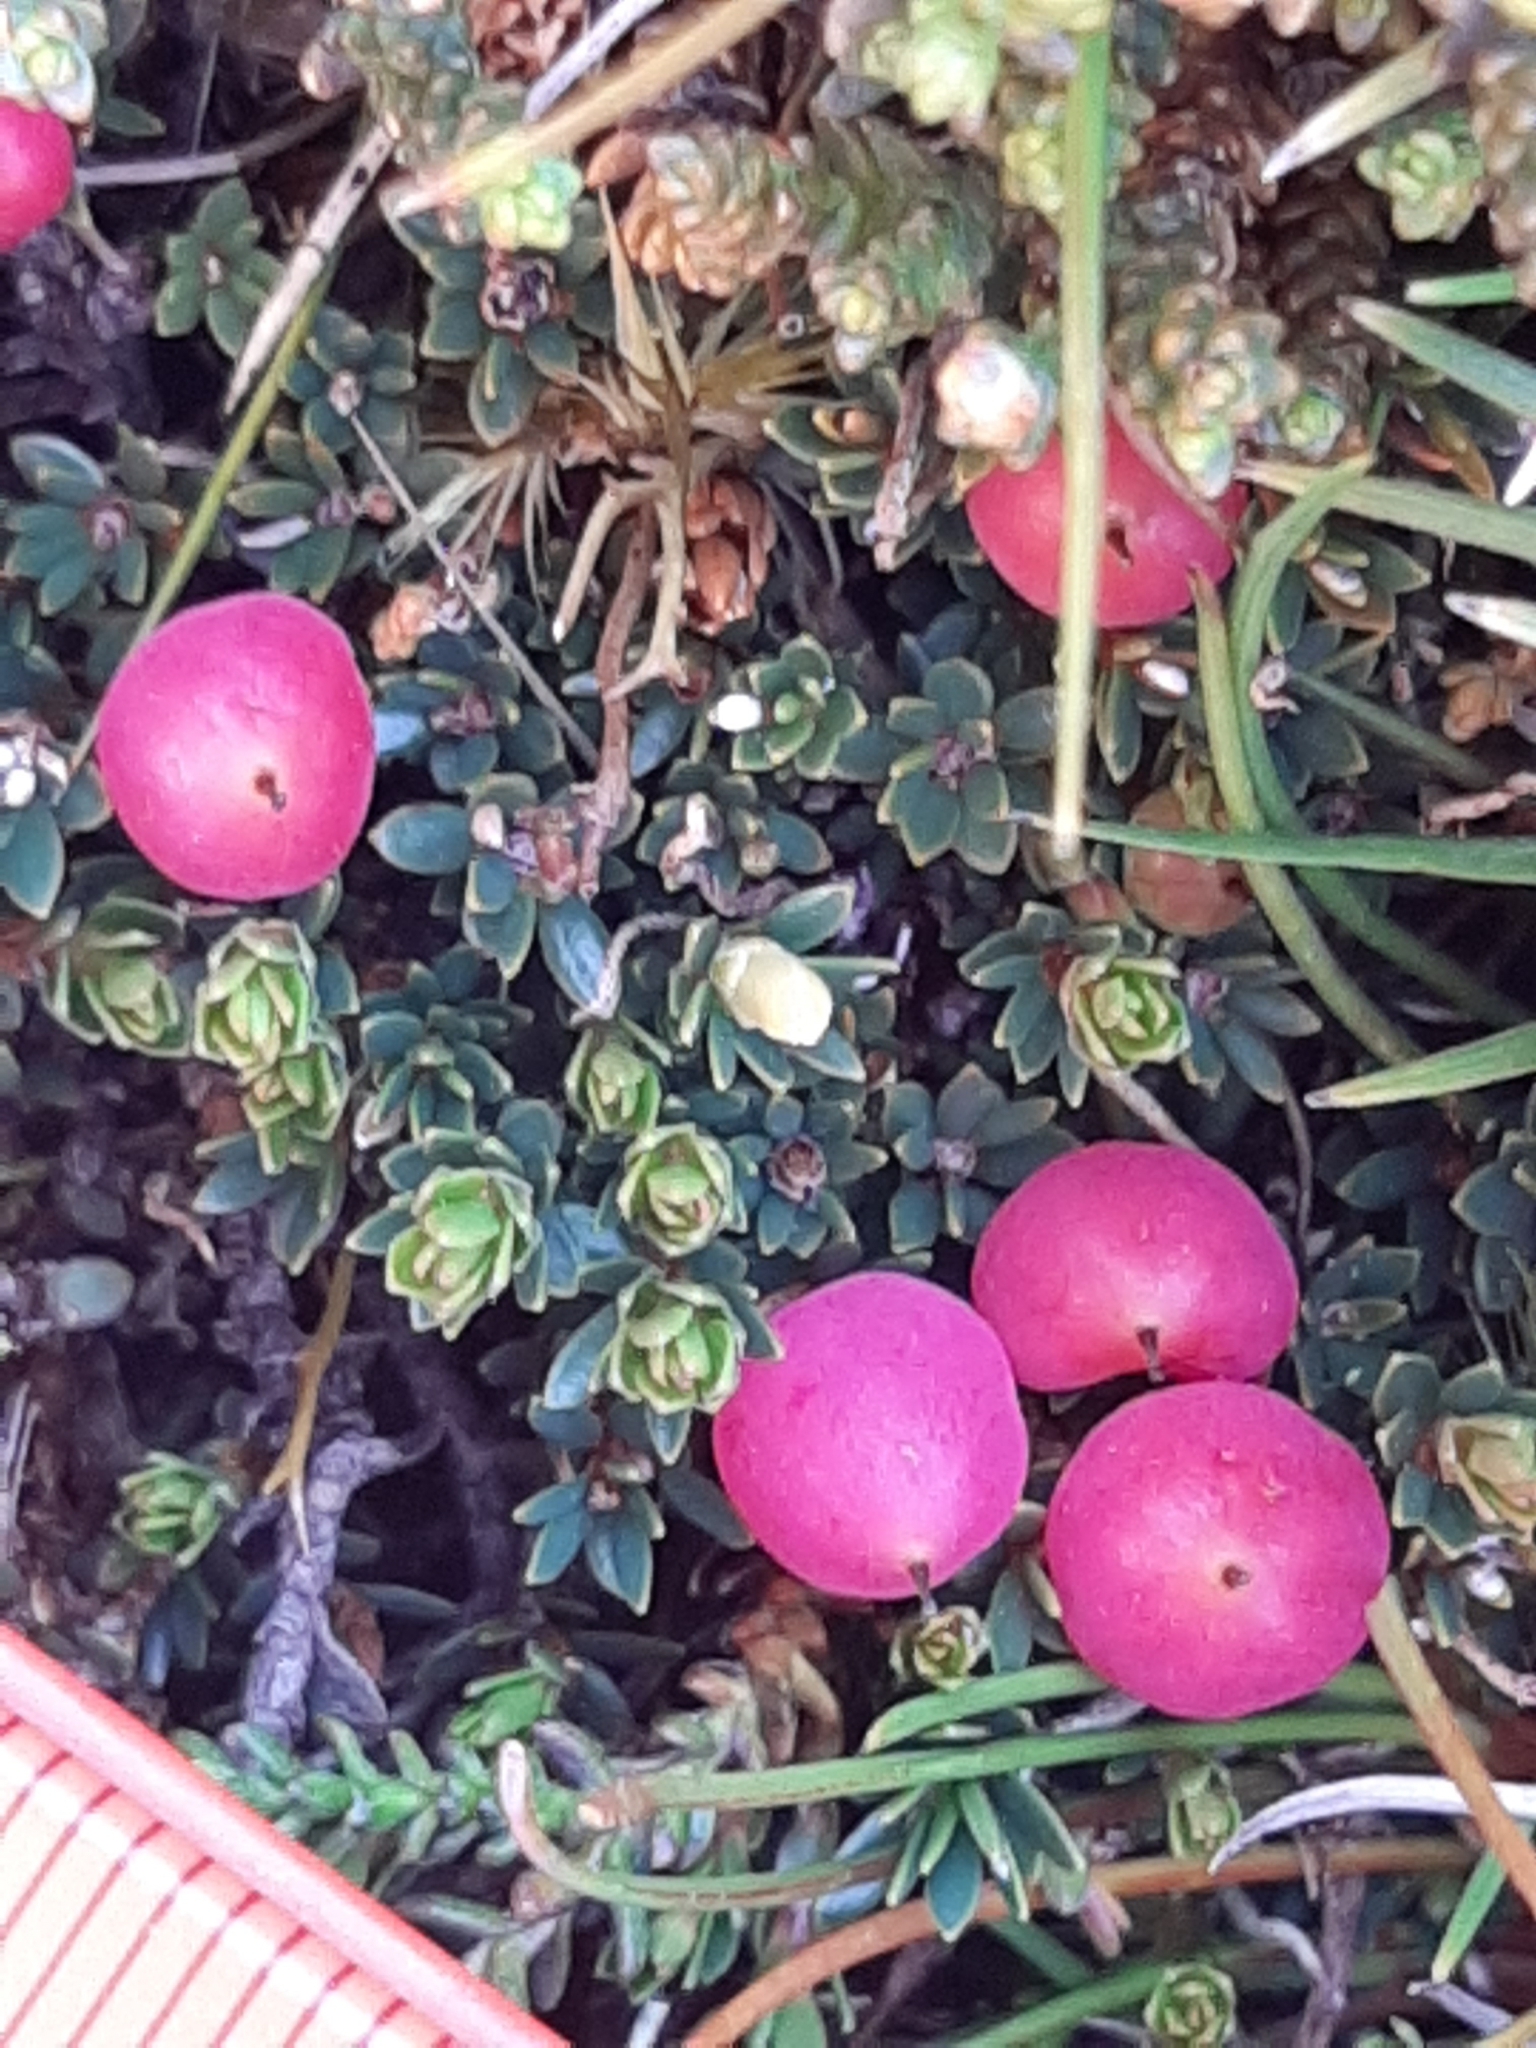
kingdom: Plantae
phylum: Tracheophyta
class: Magnoliopsida
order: Ericales
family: Ericaceae
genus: Pentachondra
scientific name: Pentachondra pumila
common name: Carpet-heath
